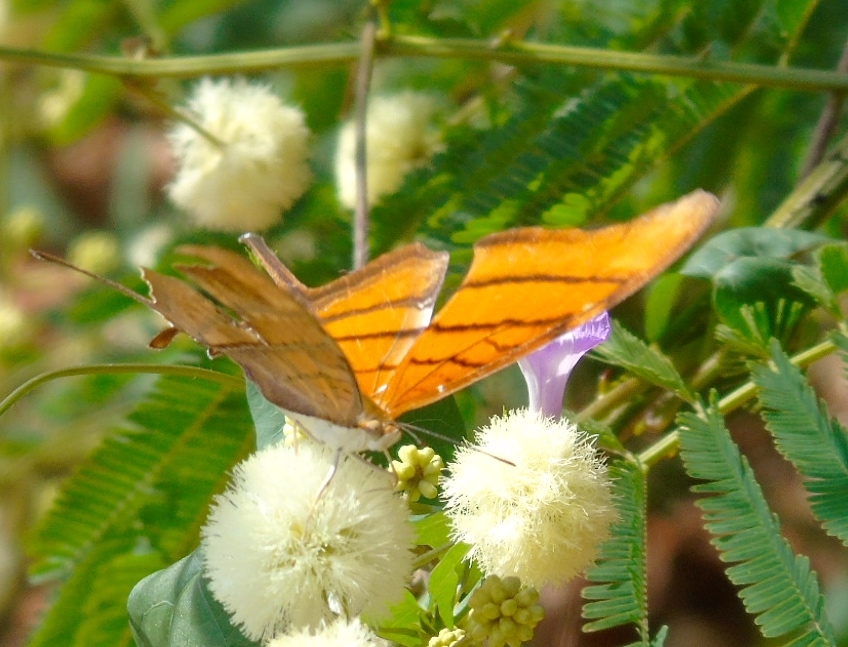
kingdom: Animalia
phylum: Arthropoda
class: Insecta
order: Lepidoptera
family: Nymphalidae
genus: Marpesia
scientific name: Marpesia petreus
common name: Red dagger wing
